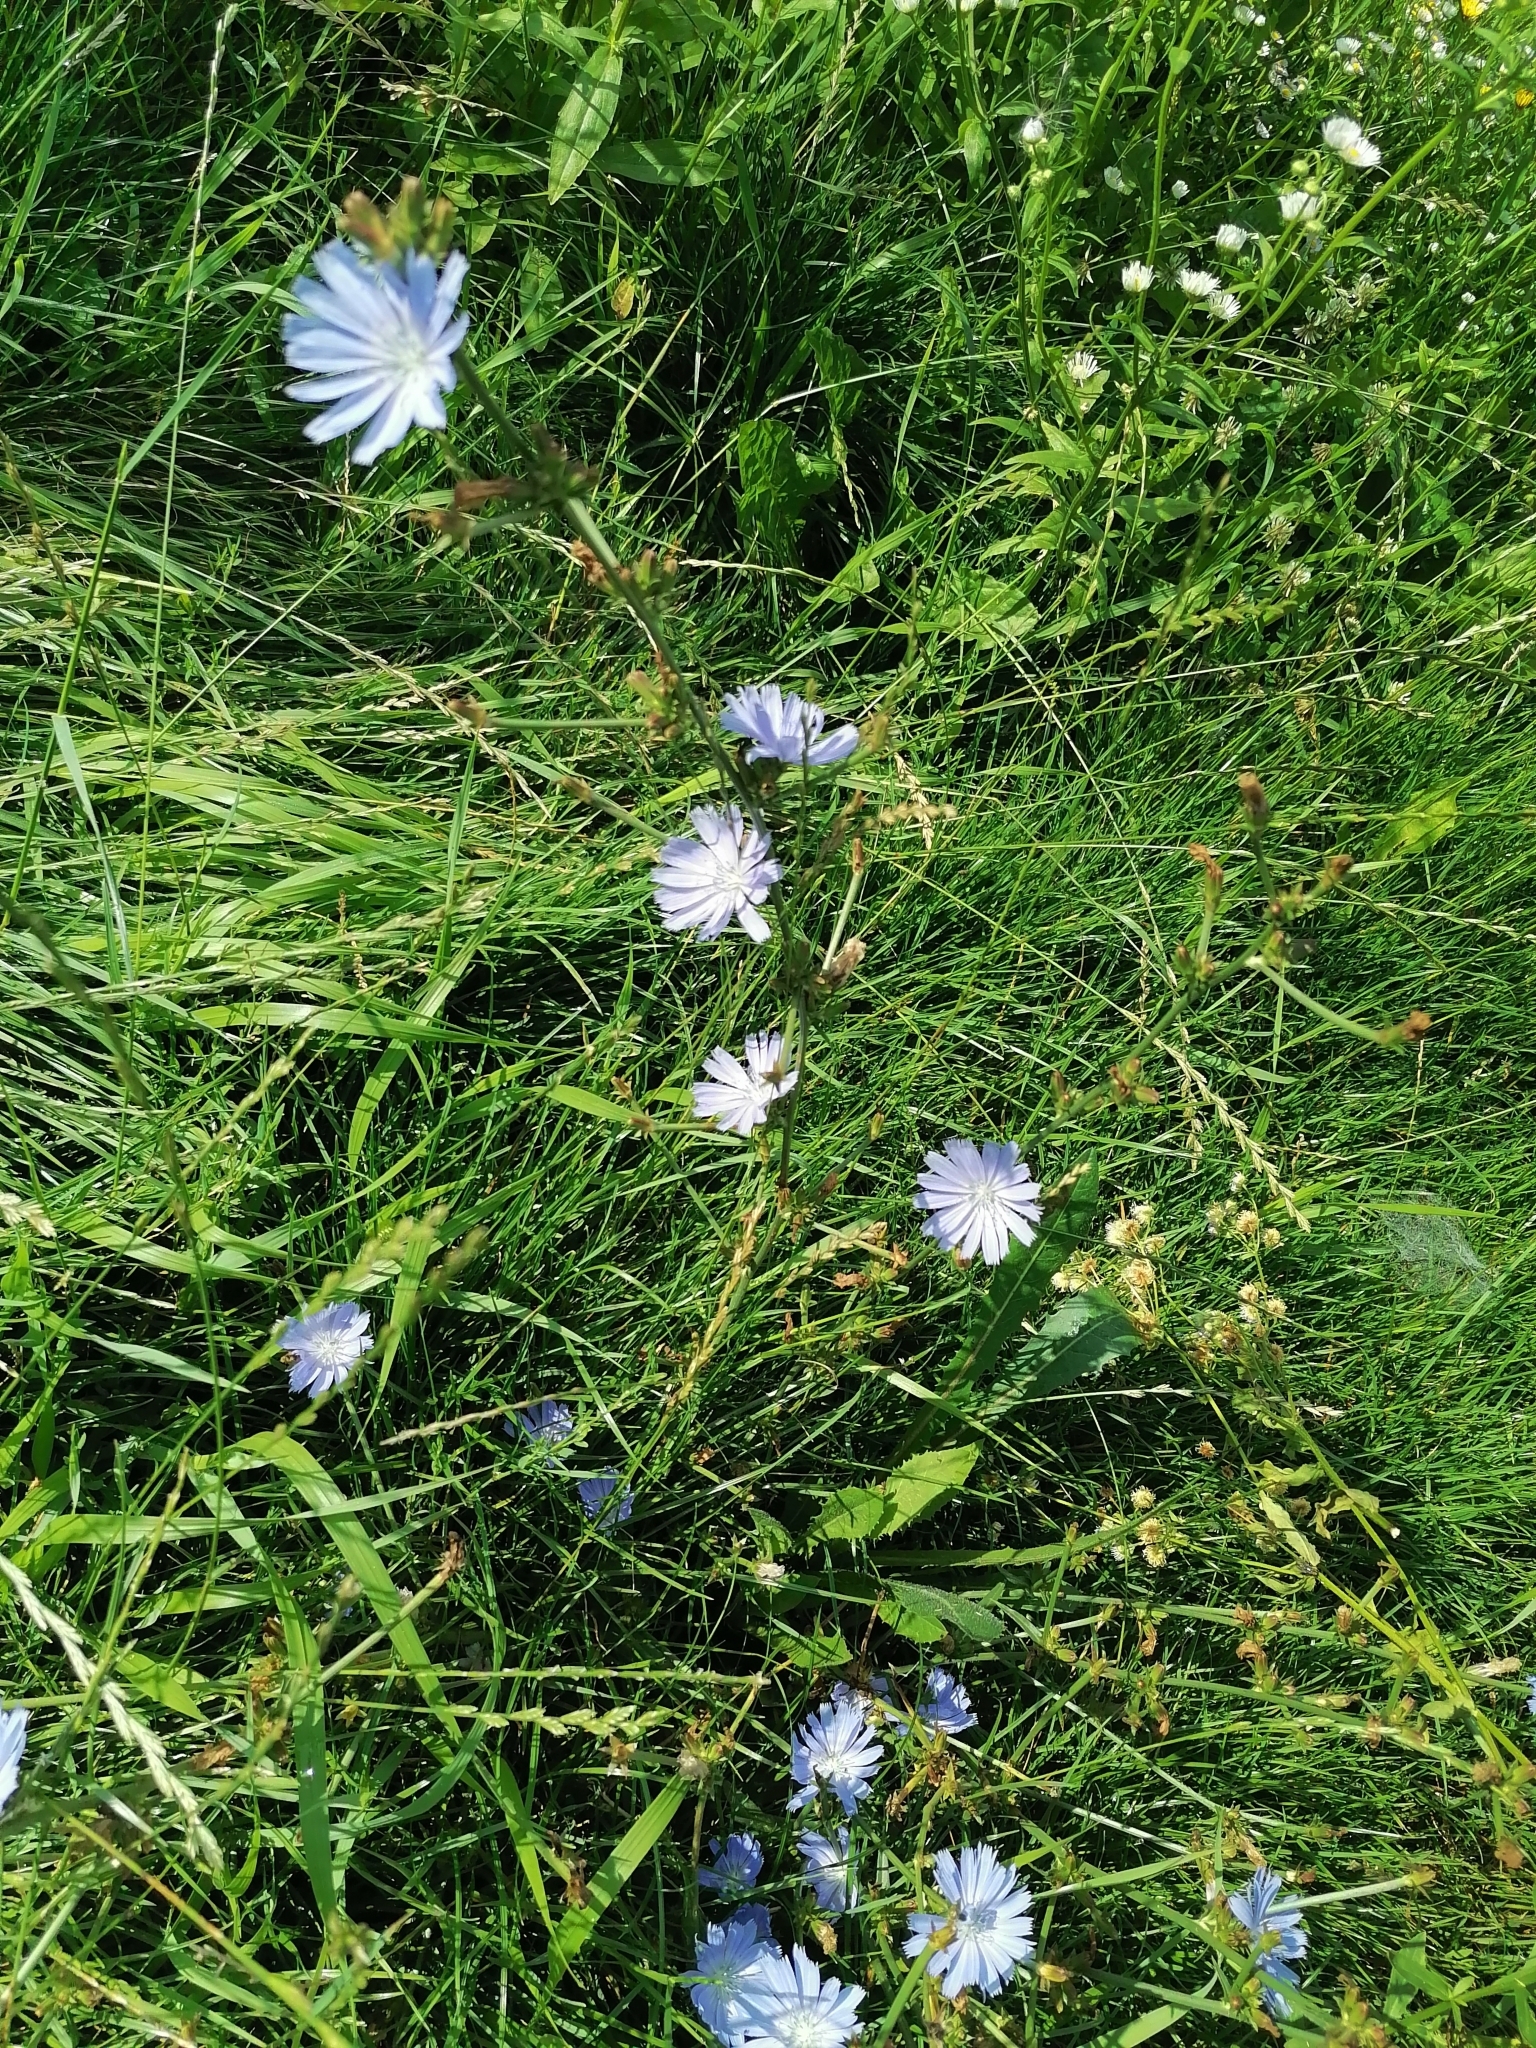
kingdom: Plantae
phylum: Tracheophyta
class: Magnoliopsida
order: Asterales
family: Asteraceae
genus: Cichorium
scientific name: Cichorium intybus
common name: Chicory
